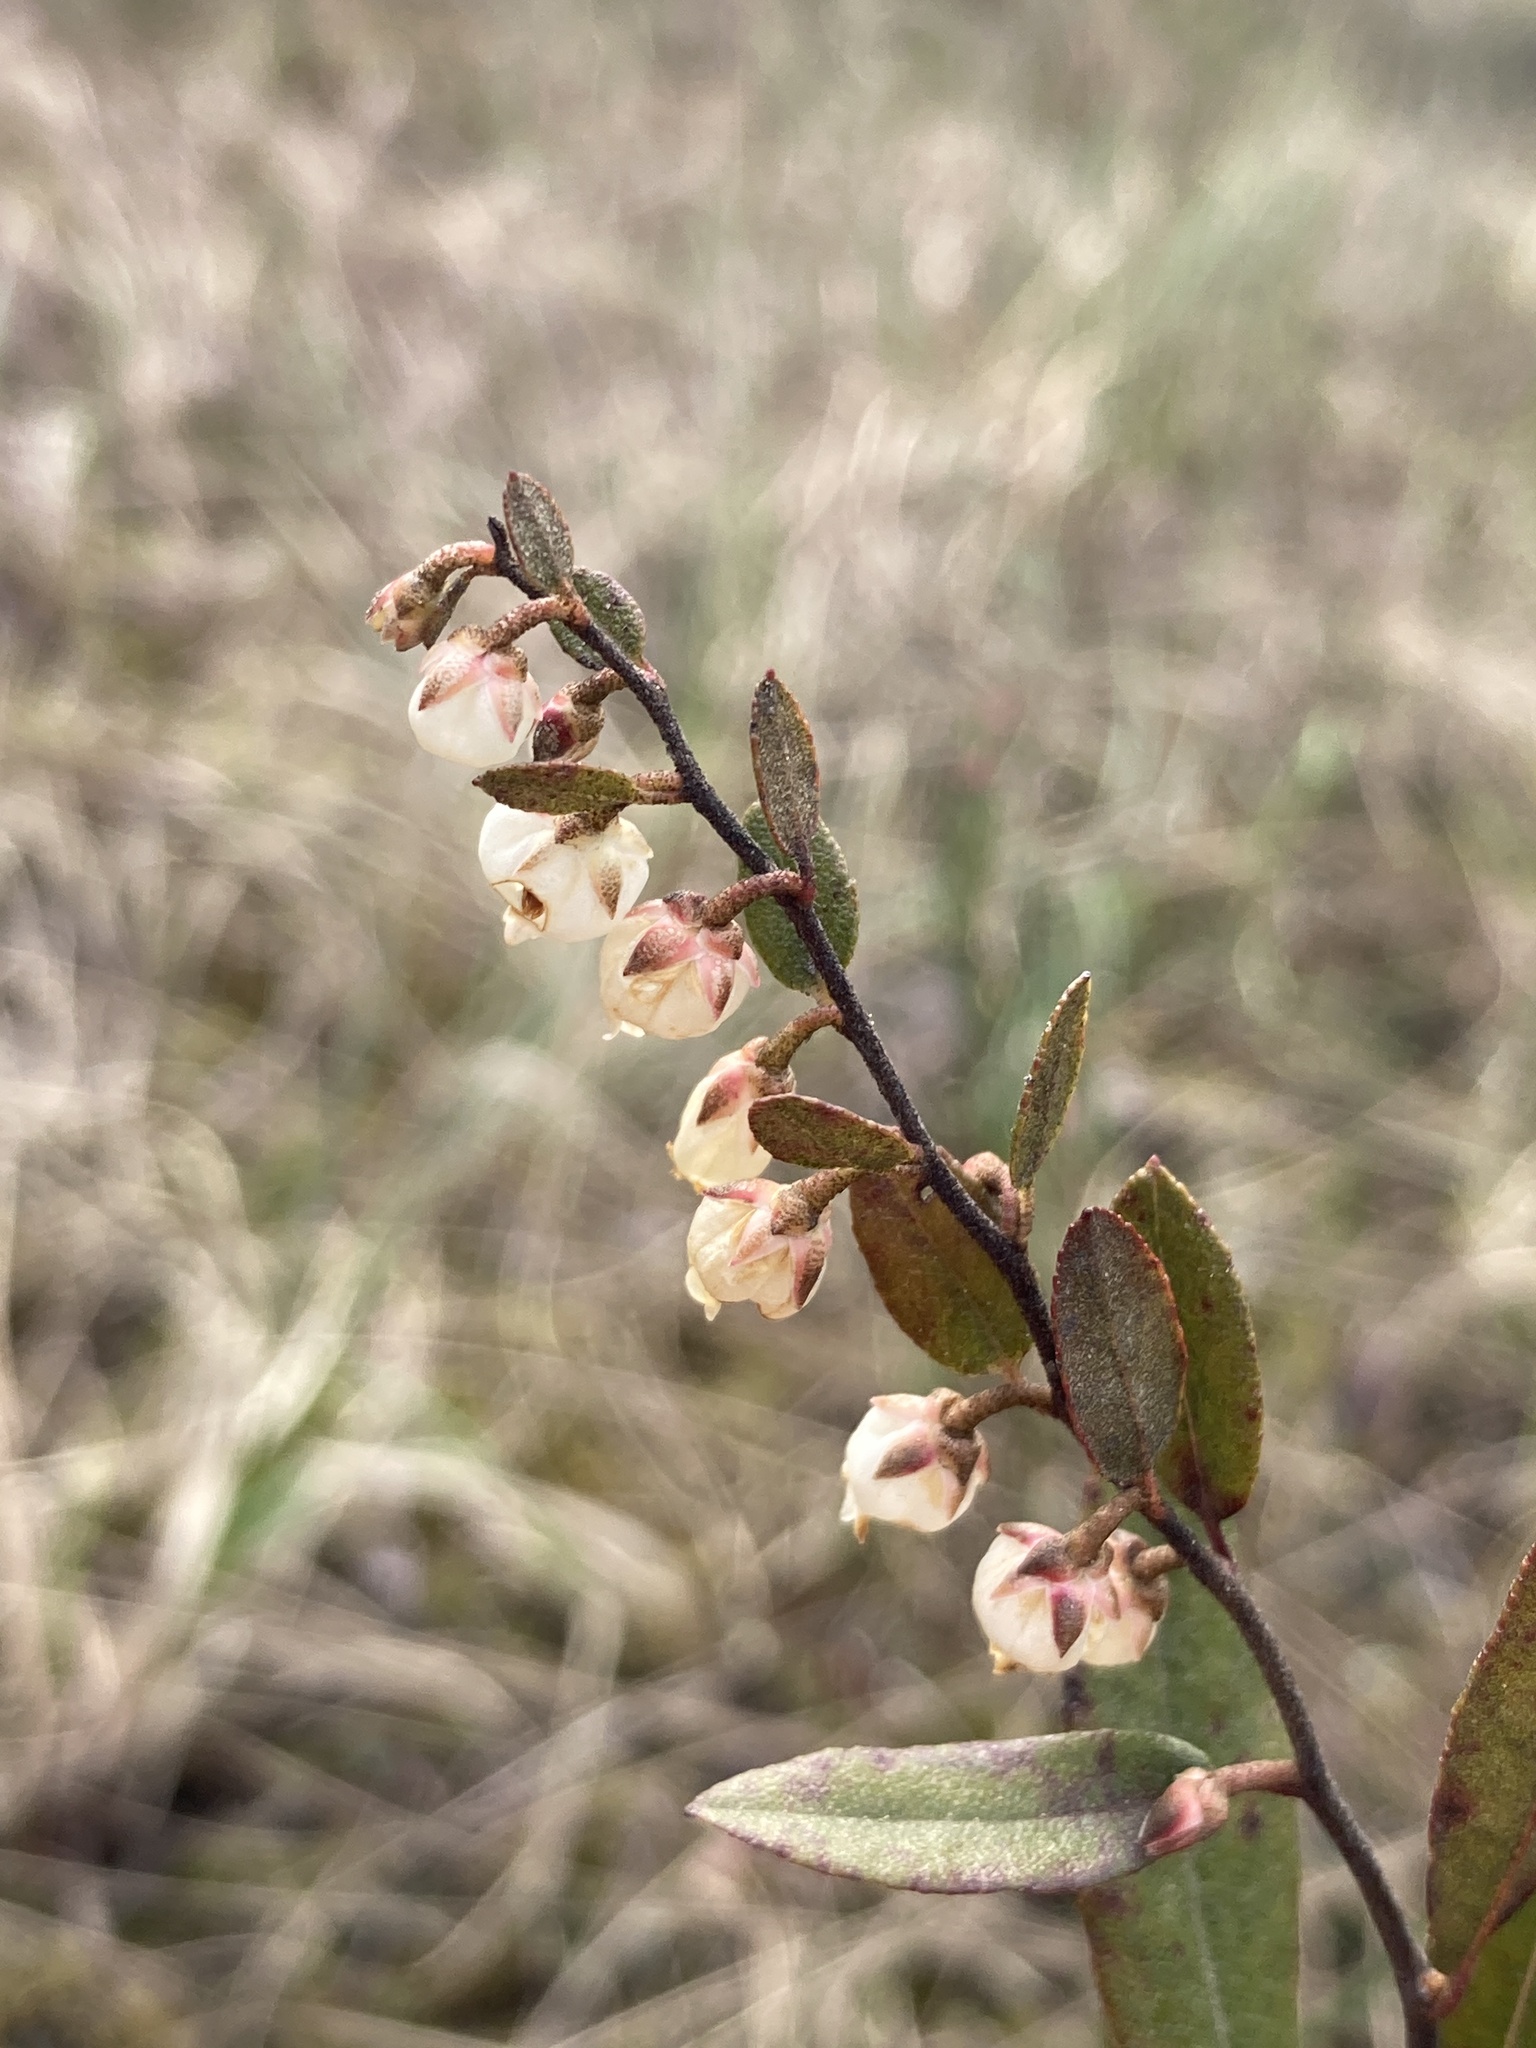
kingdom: Plantae
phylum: Tracheophyta
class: Magnoliopsida
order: Ericales
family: Ericaceae
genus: Chamaedaphne
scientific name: Chamaedaphne calyculata
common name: Leatherleaf
